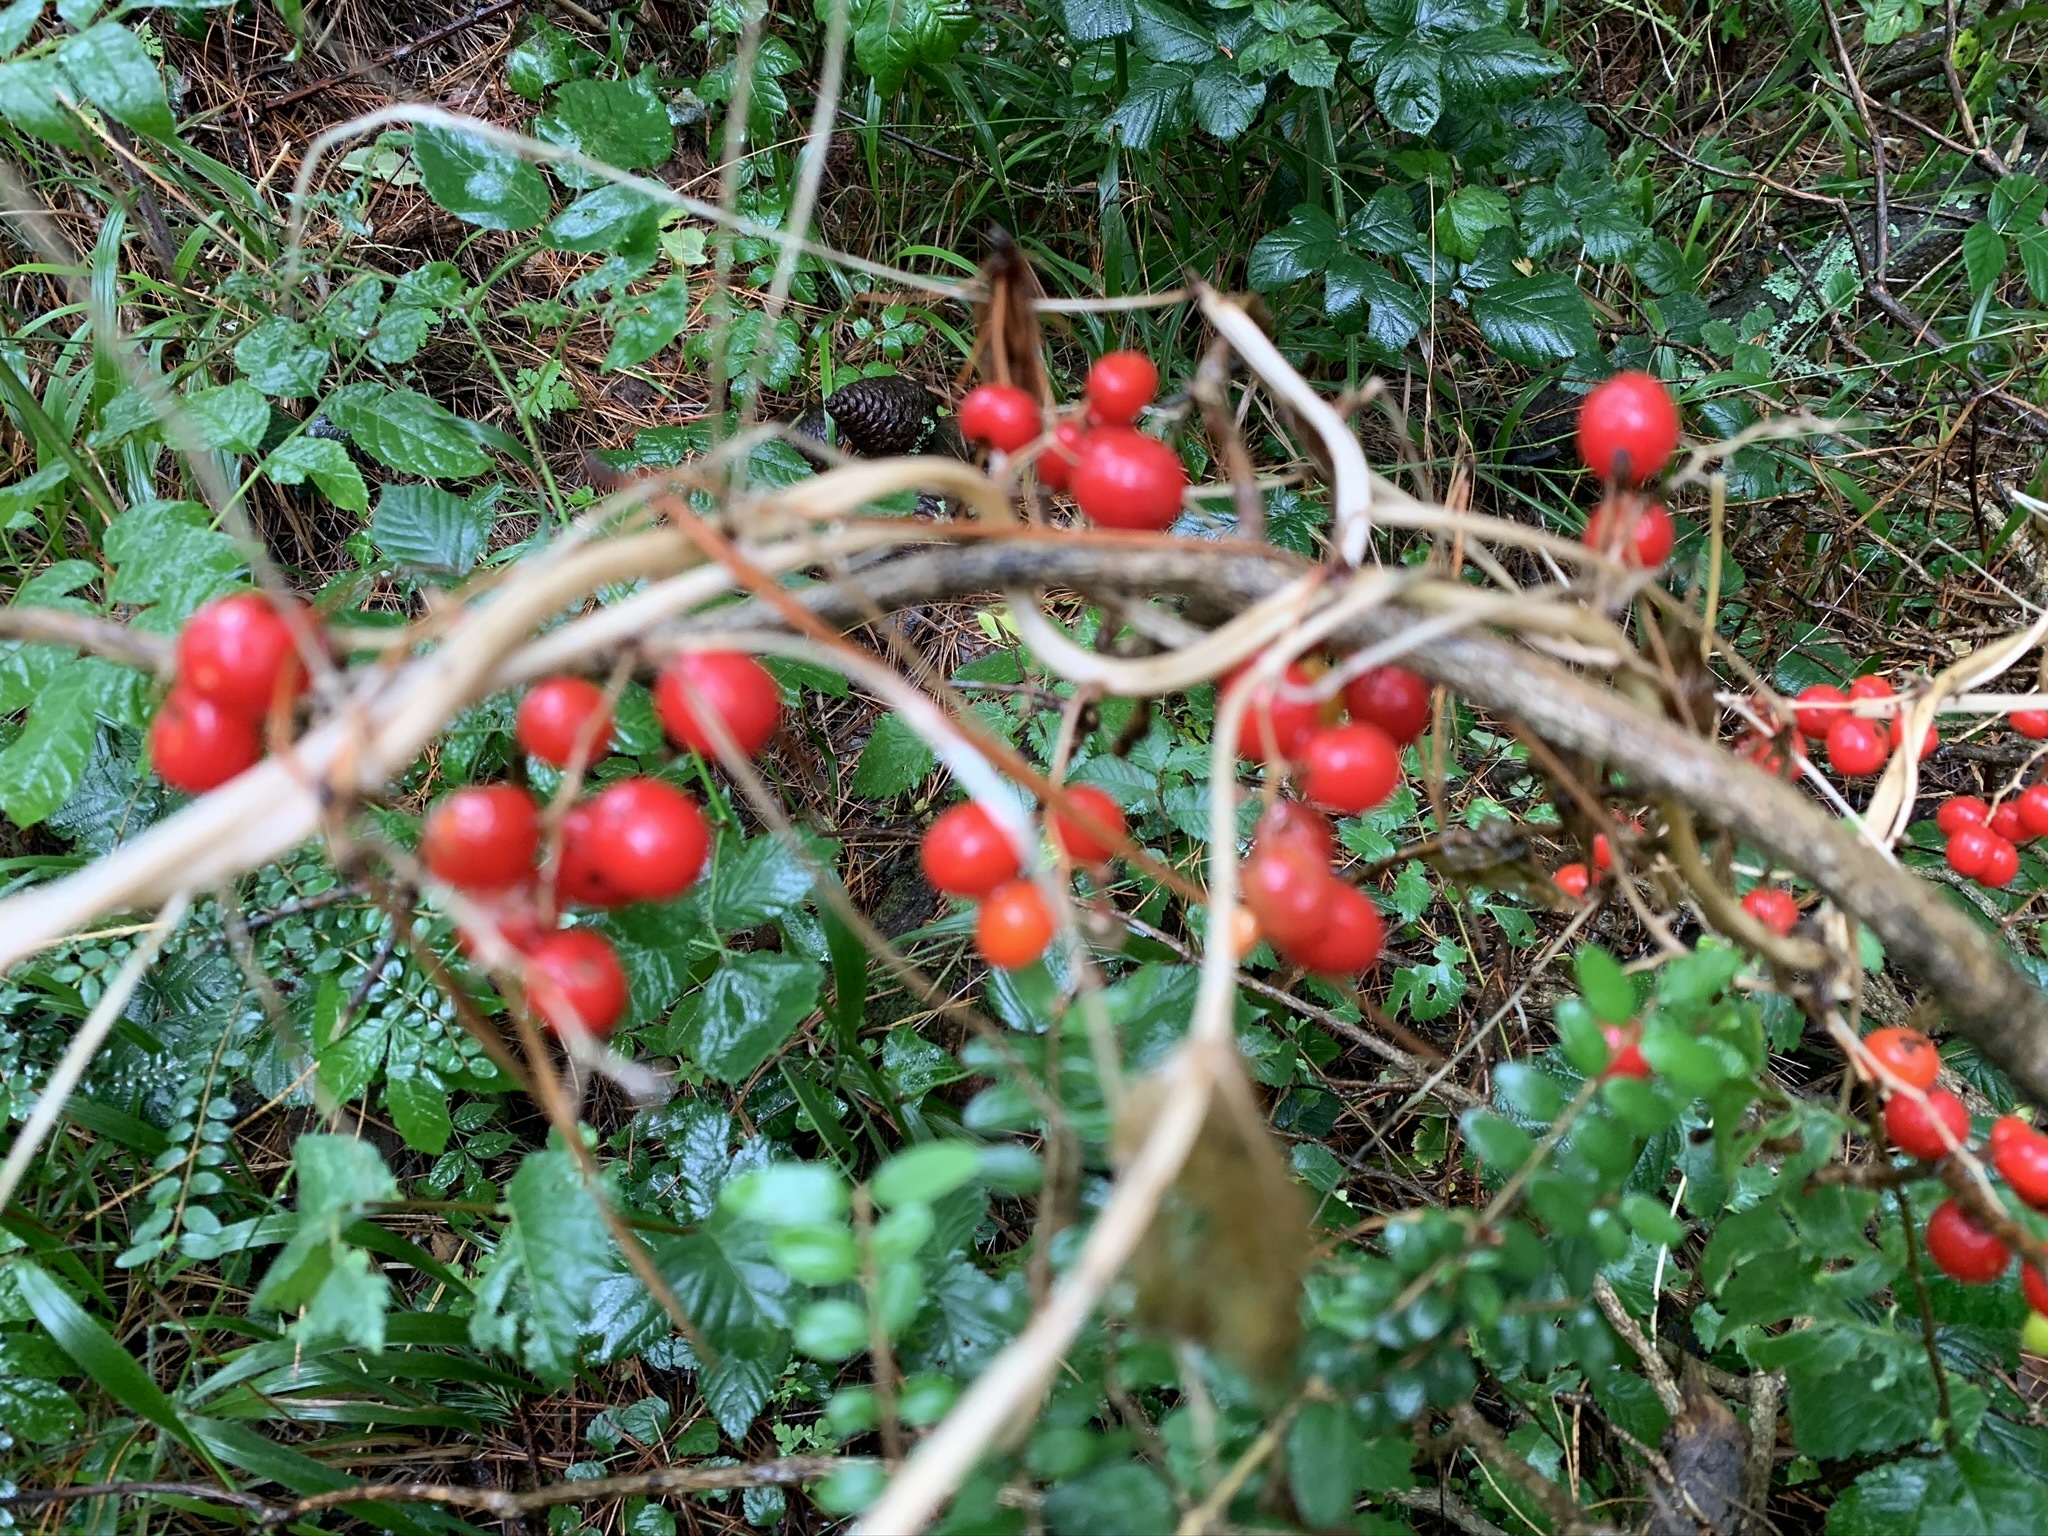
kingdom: Plantae
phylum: Tracheophyta
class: Liliopsida
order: Dioscoreales
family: Dioscoreaceae
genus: Dioscorea
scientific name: Dioscorea communis
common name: Black-bindweed
